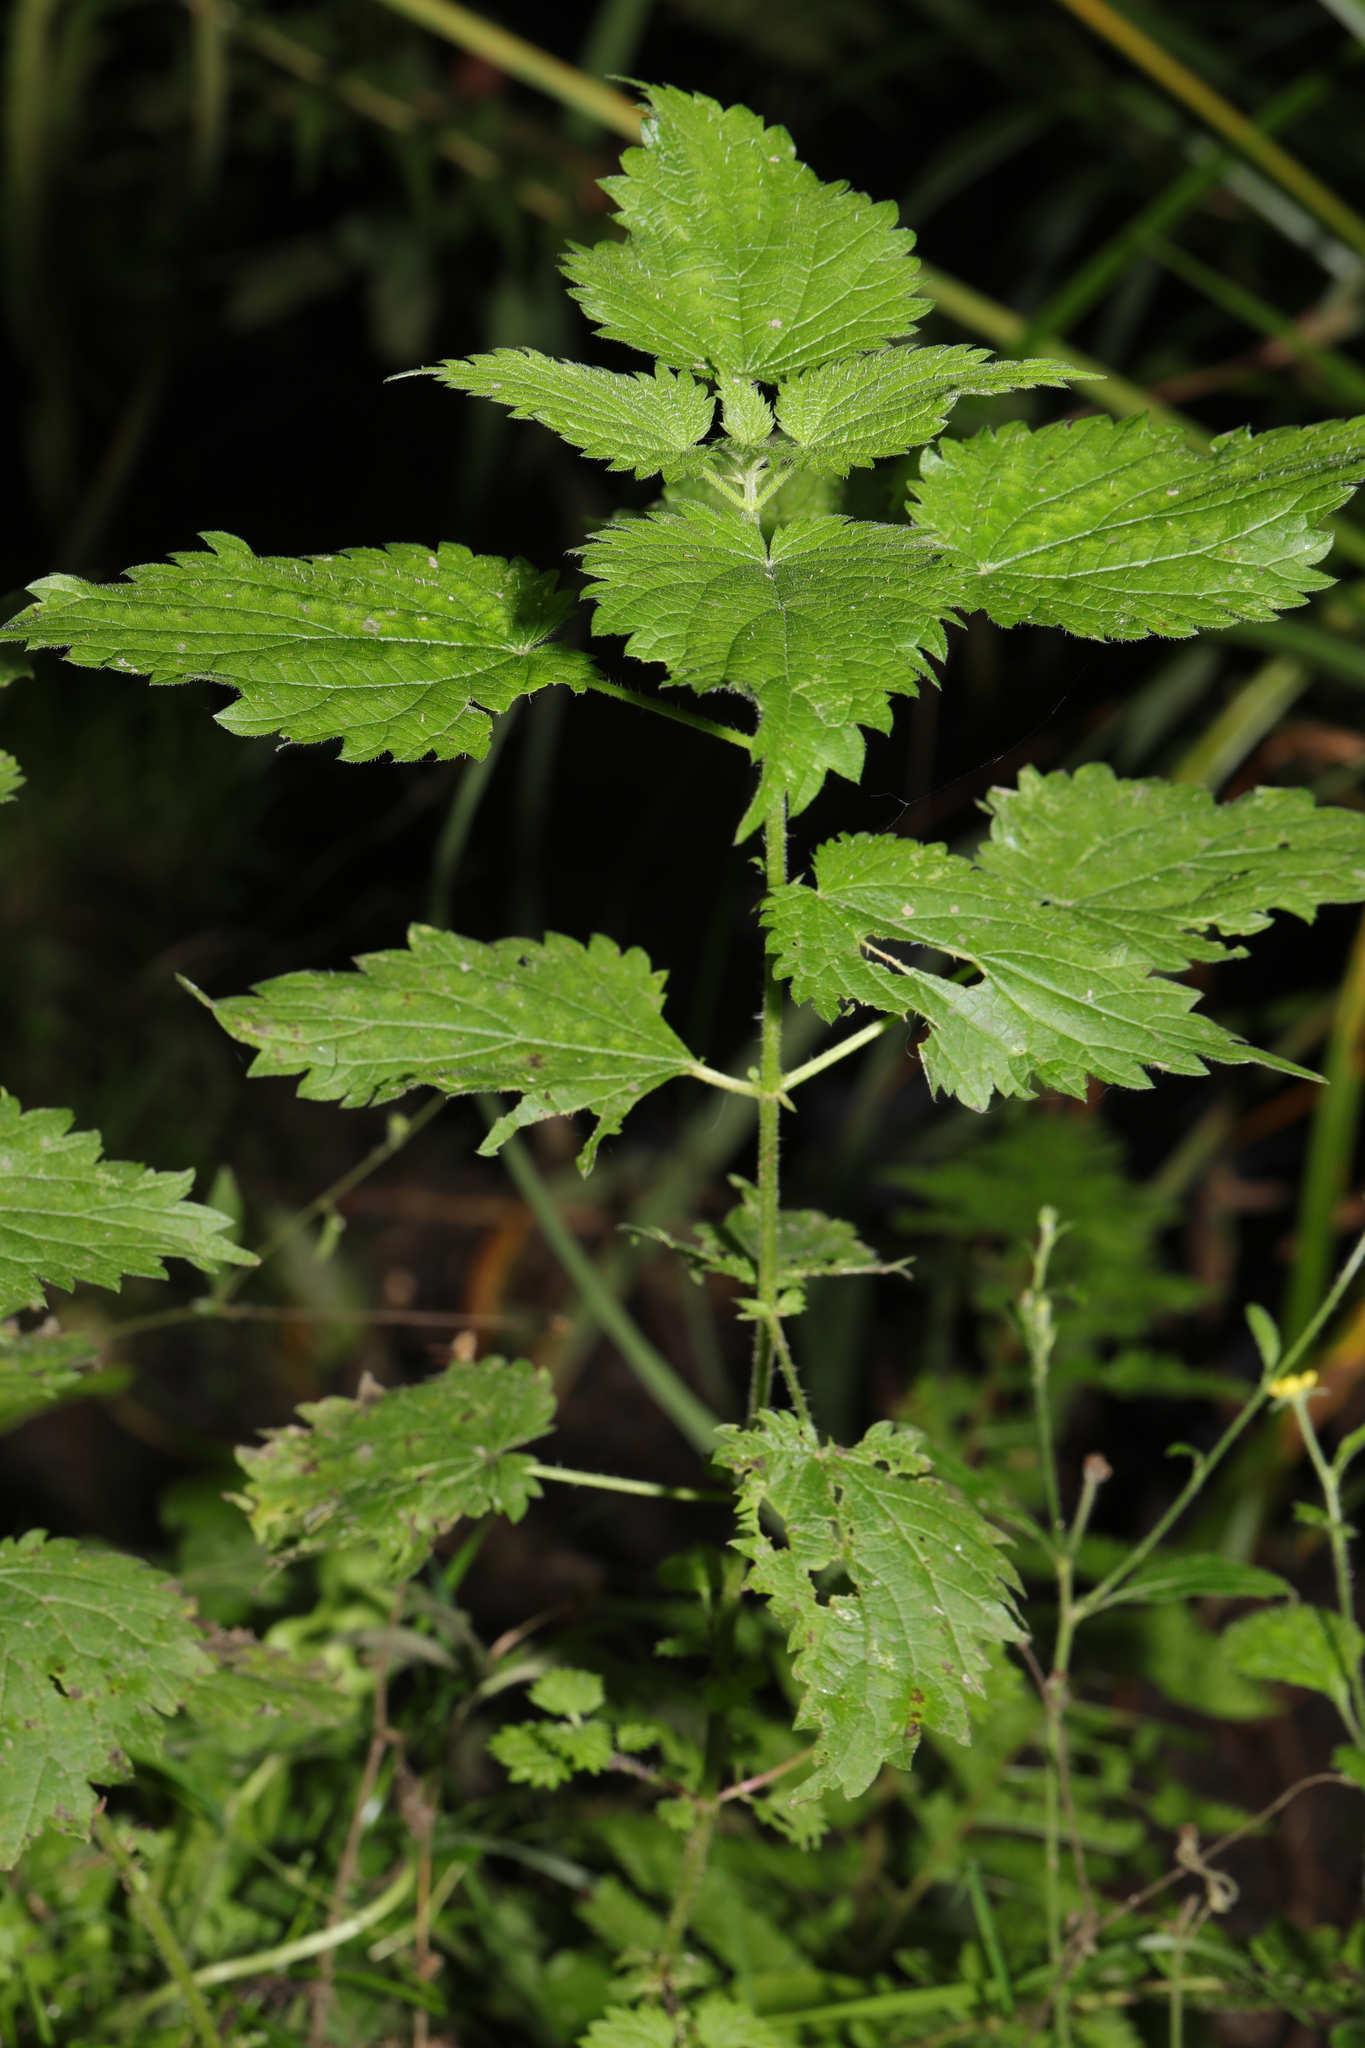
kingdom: Plantae
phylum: Tracheophyta
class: Magnoliopsida
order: Rosales
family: Urticaceae
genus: Urtica
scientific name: Urtica dioica
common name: Common nettle
